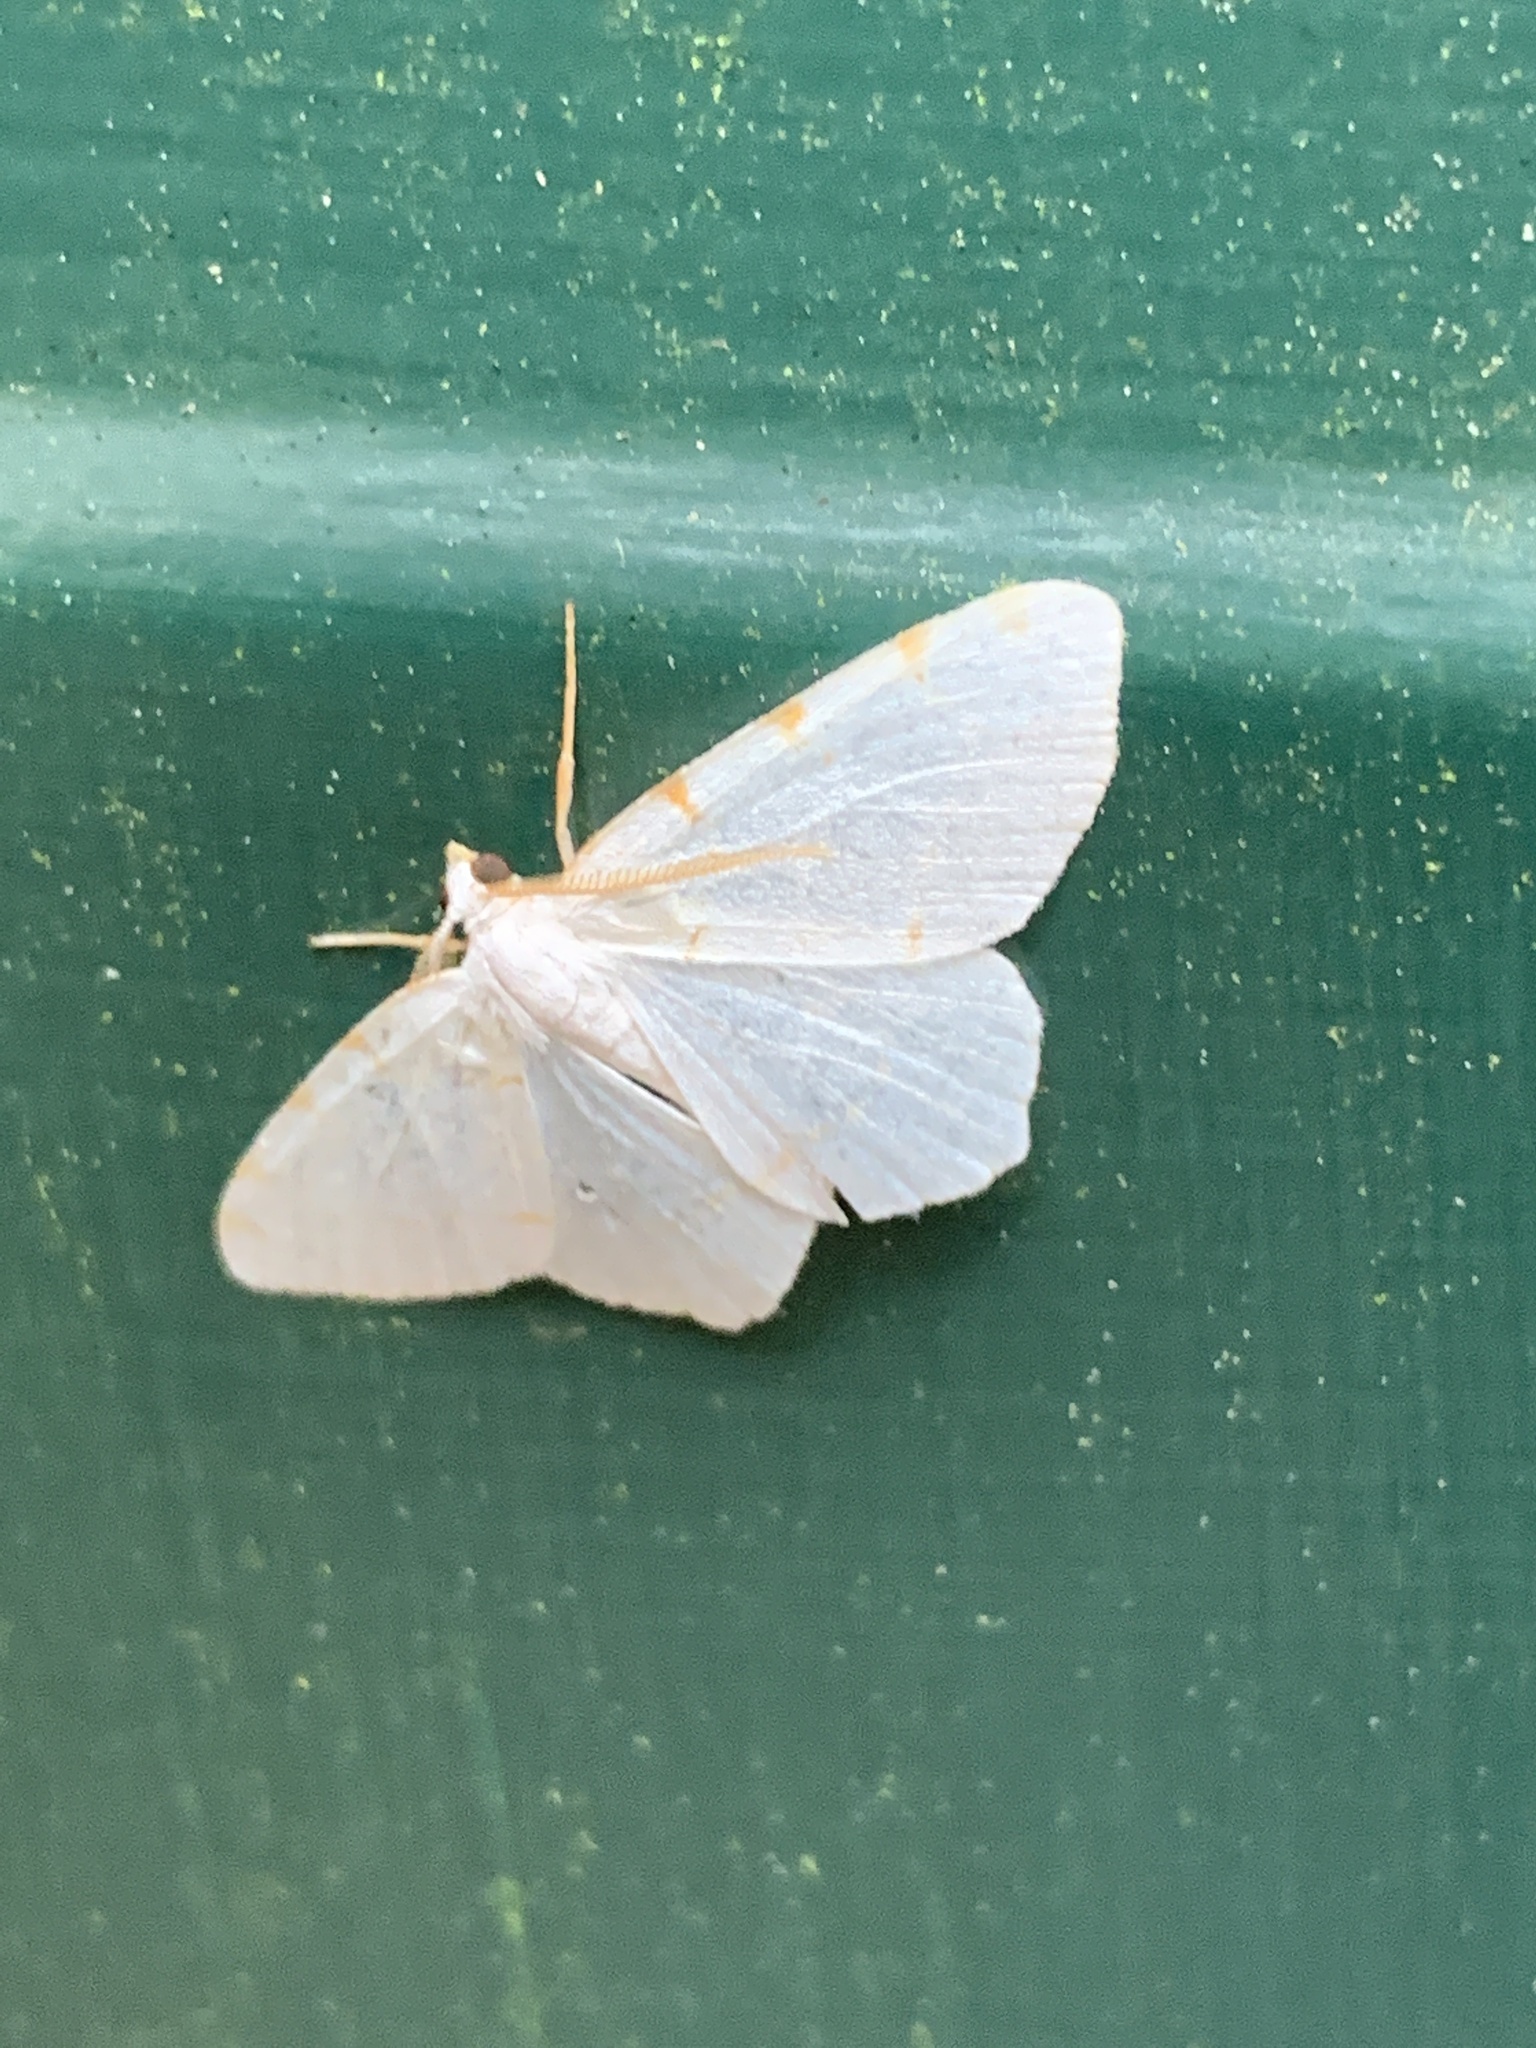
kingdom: Animalia
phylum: Arthropoda
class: Insecta
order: Lepidoptera
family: Geometridae
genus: Macaria
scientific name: Macaria pustularia
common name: Lesser maple spanworm moth
